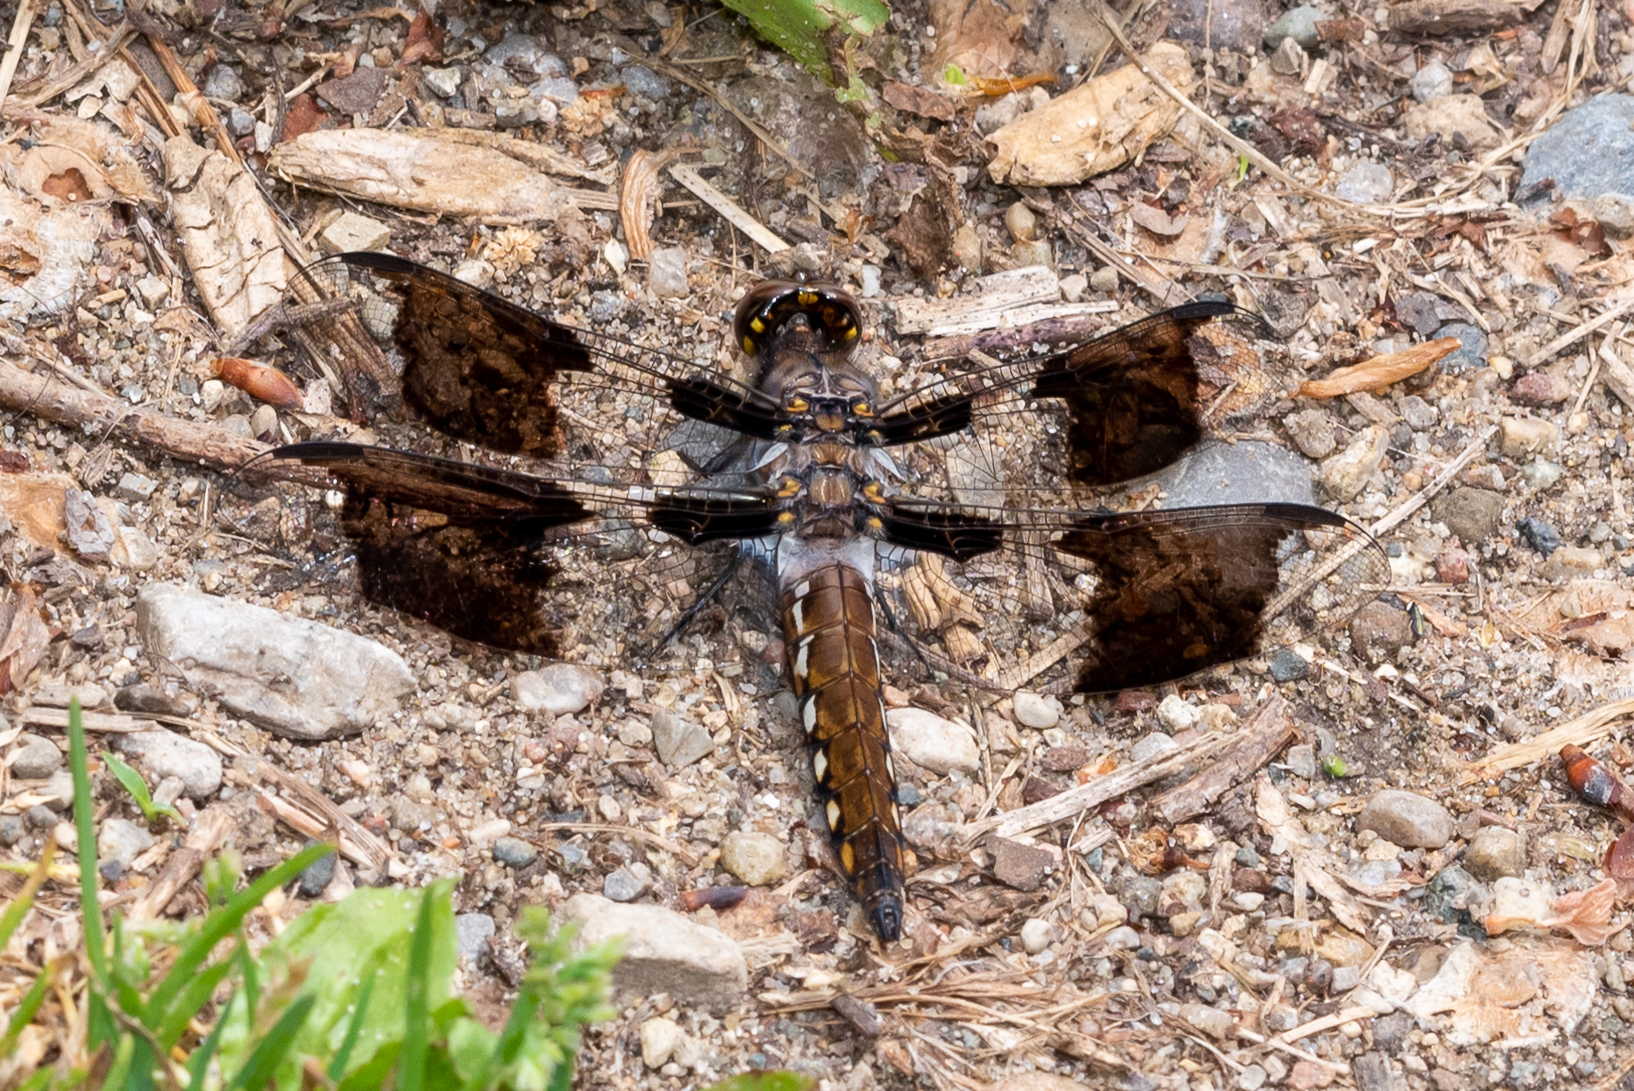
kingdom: Animalia
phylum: Arthropoda
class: Insecta
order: Odonata
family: Libellulidae
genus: Plathemis
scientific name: Plathemis lydia
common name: Common whitetail
